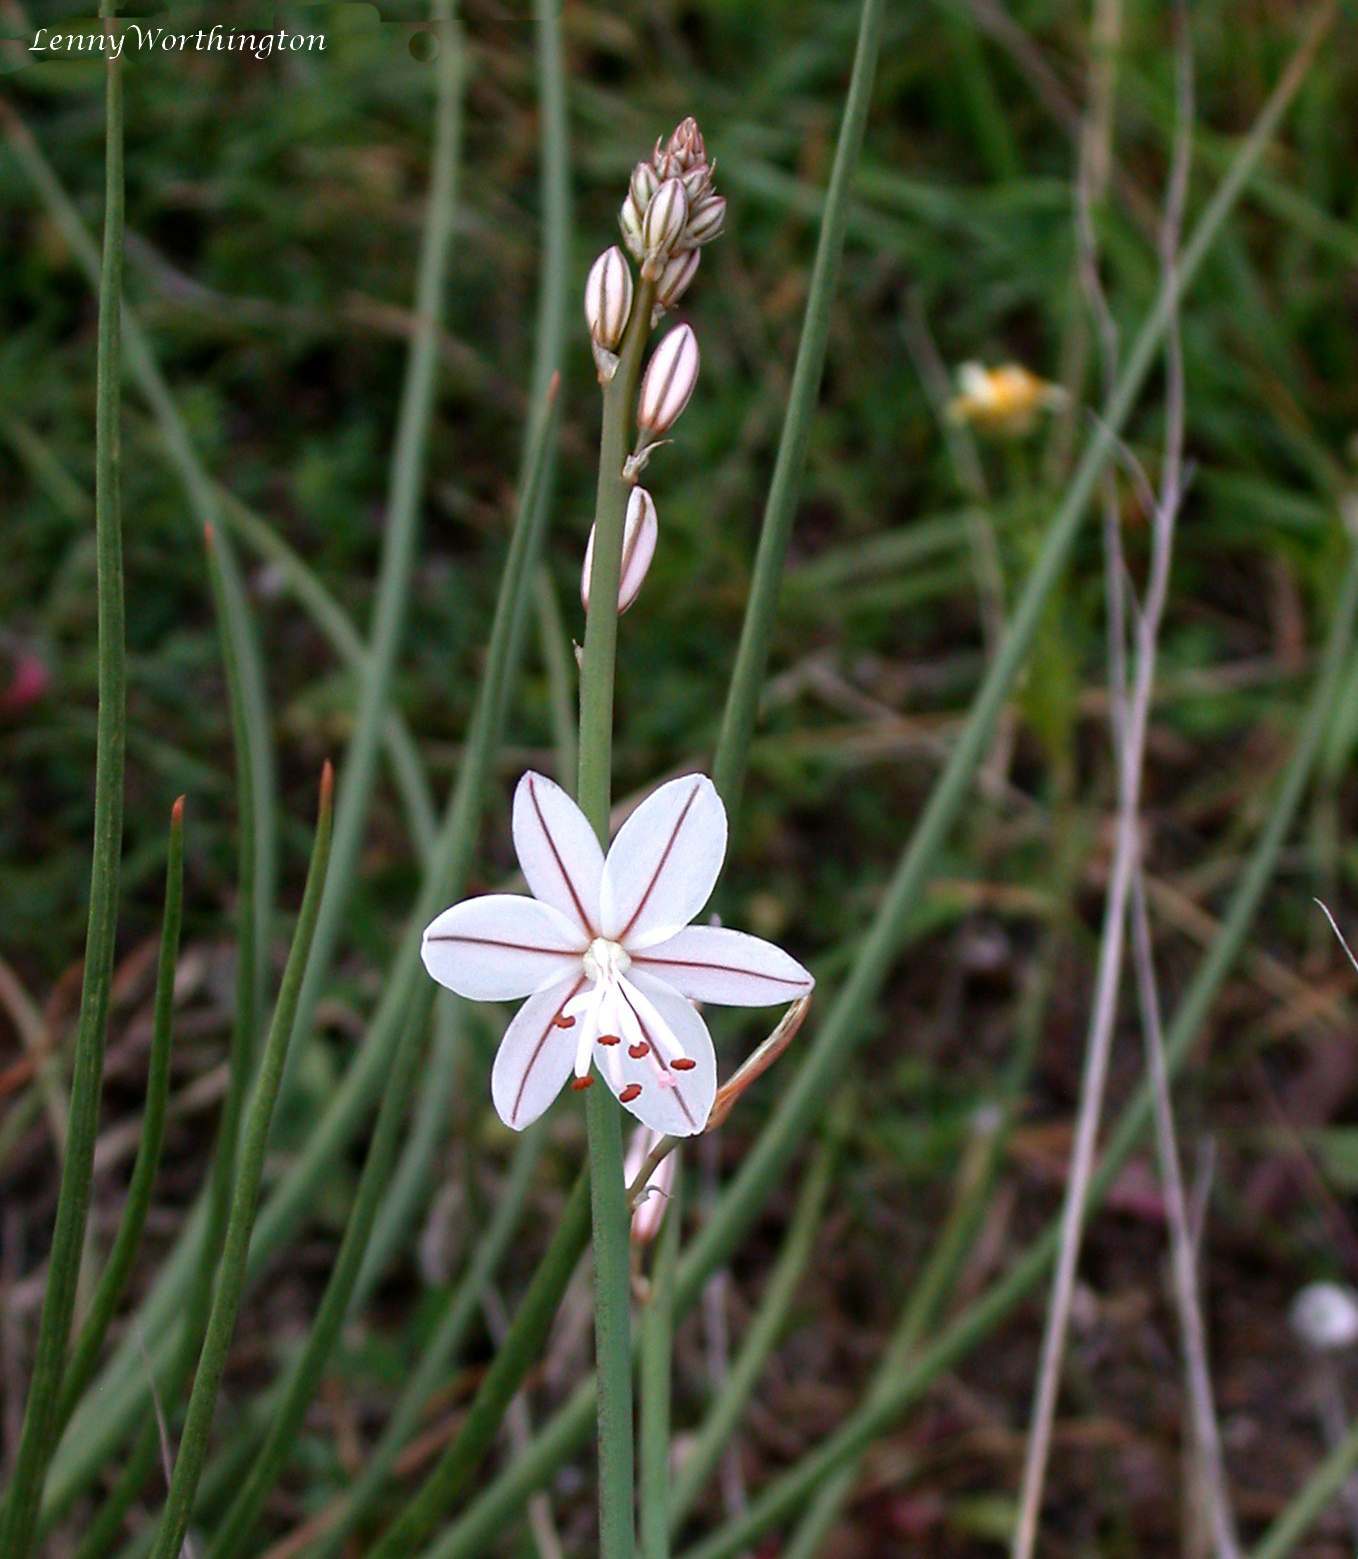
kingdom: Plantae
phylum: Tracheophyta
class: Liliopsida
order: Asparagales
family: Asphodelaceae
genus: Asphodelus
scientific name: Asphodelus fistulosus
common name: Onionweed
